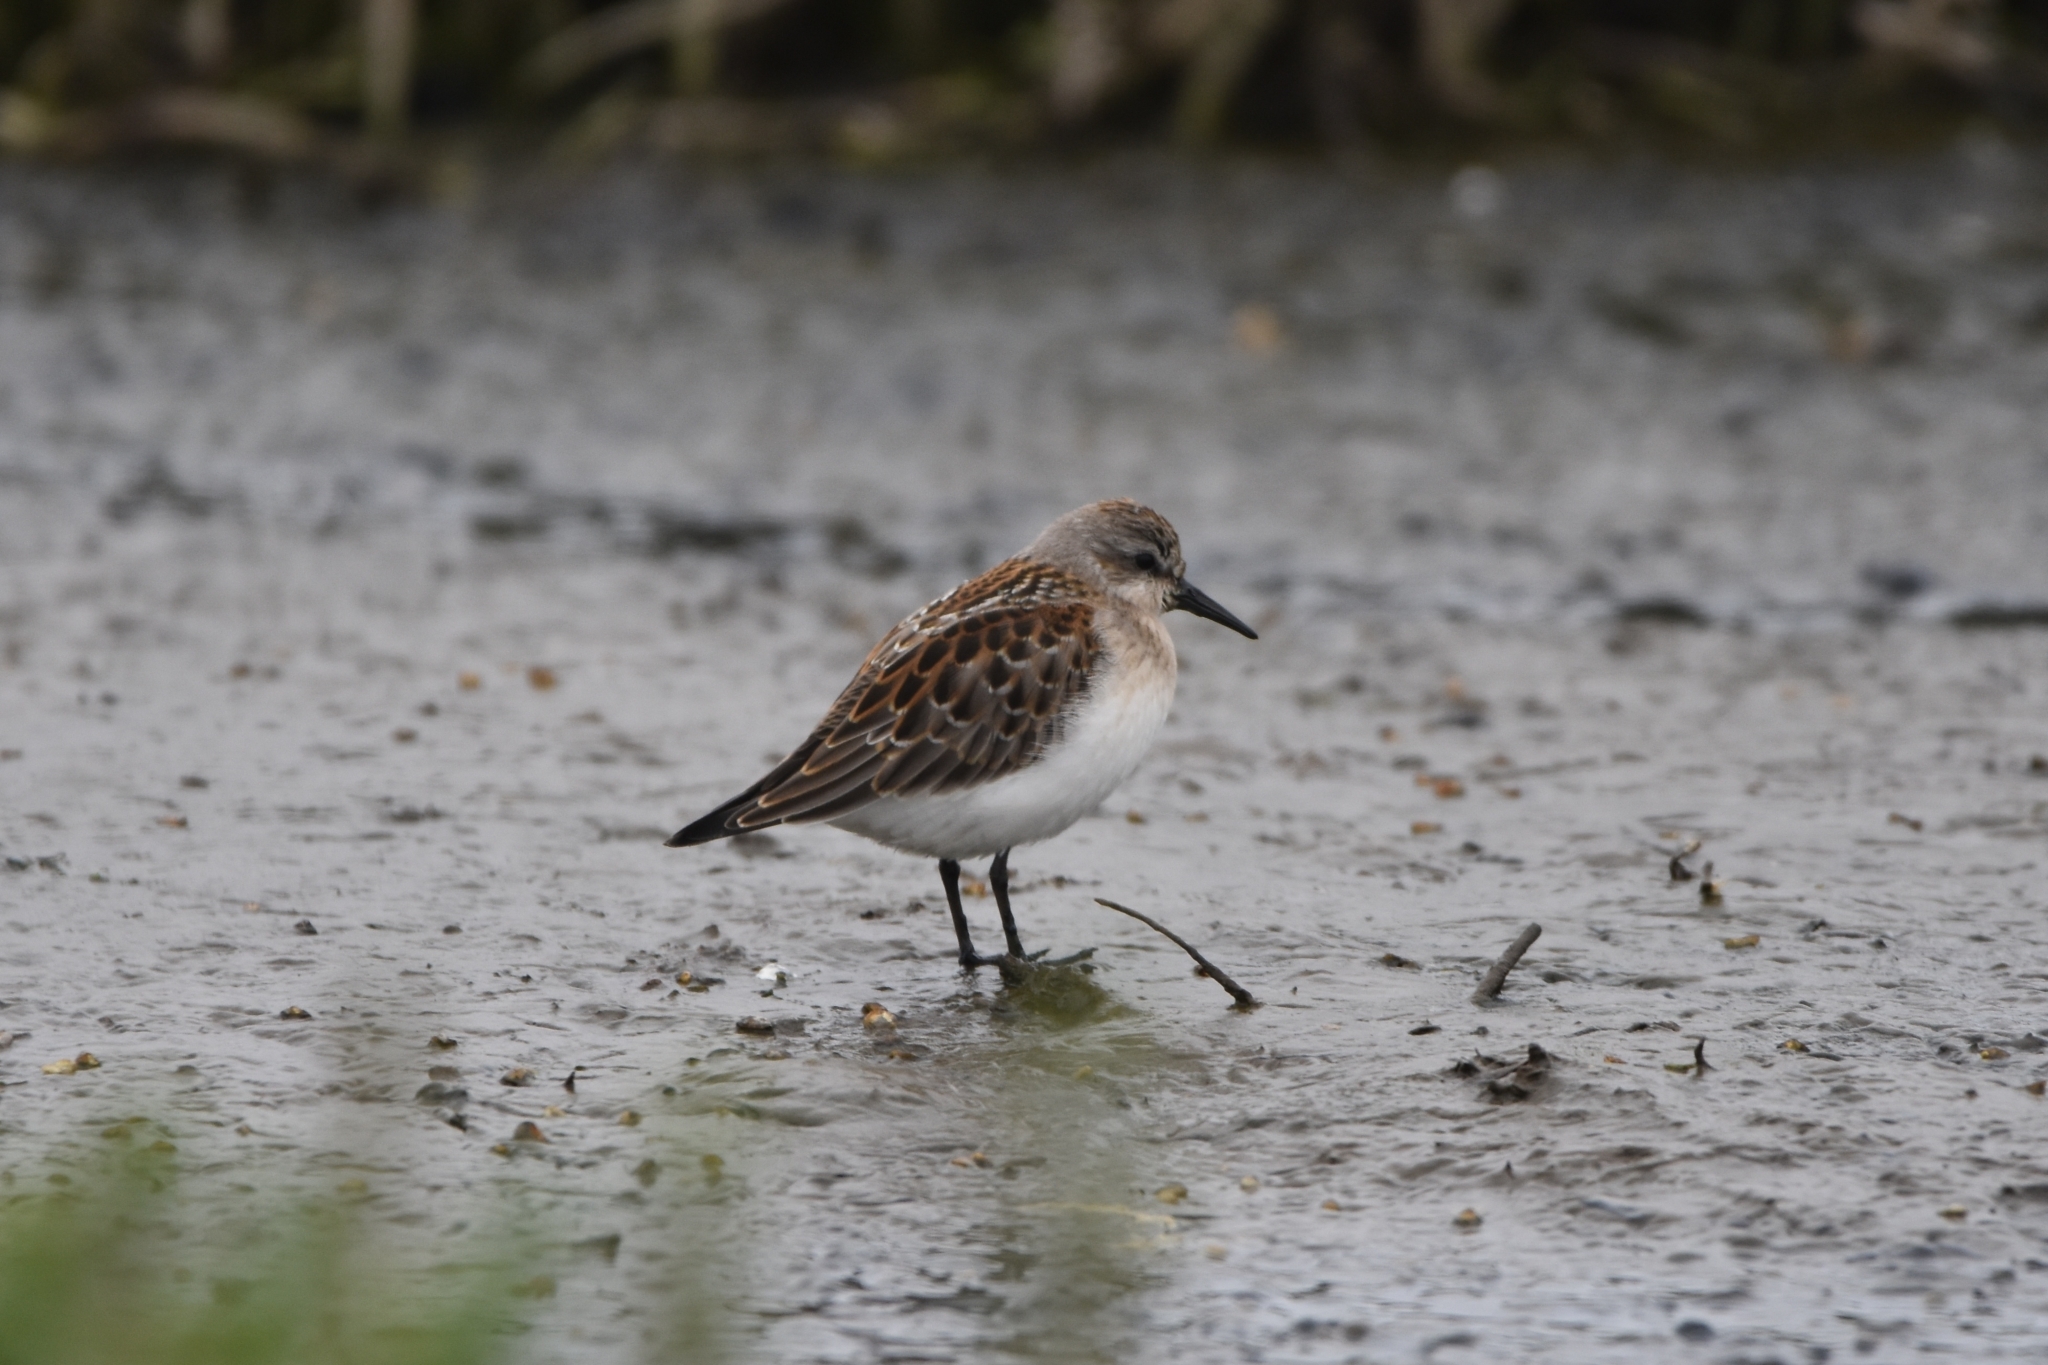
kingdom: Animalia
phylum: Chordata
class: Aves
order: Charadriiformes
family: Scolopacidae
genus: Calidris
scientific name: Calidris mauri
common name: Western sandpiper
